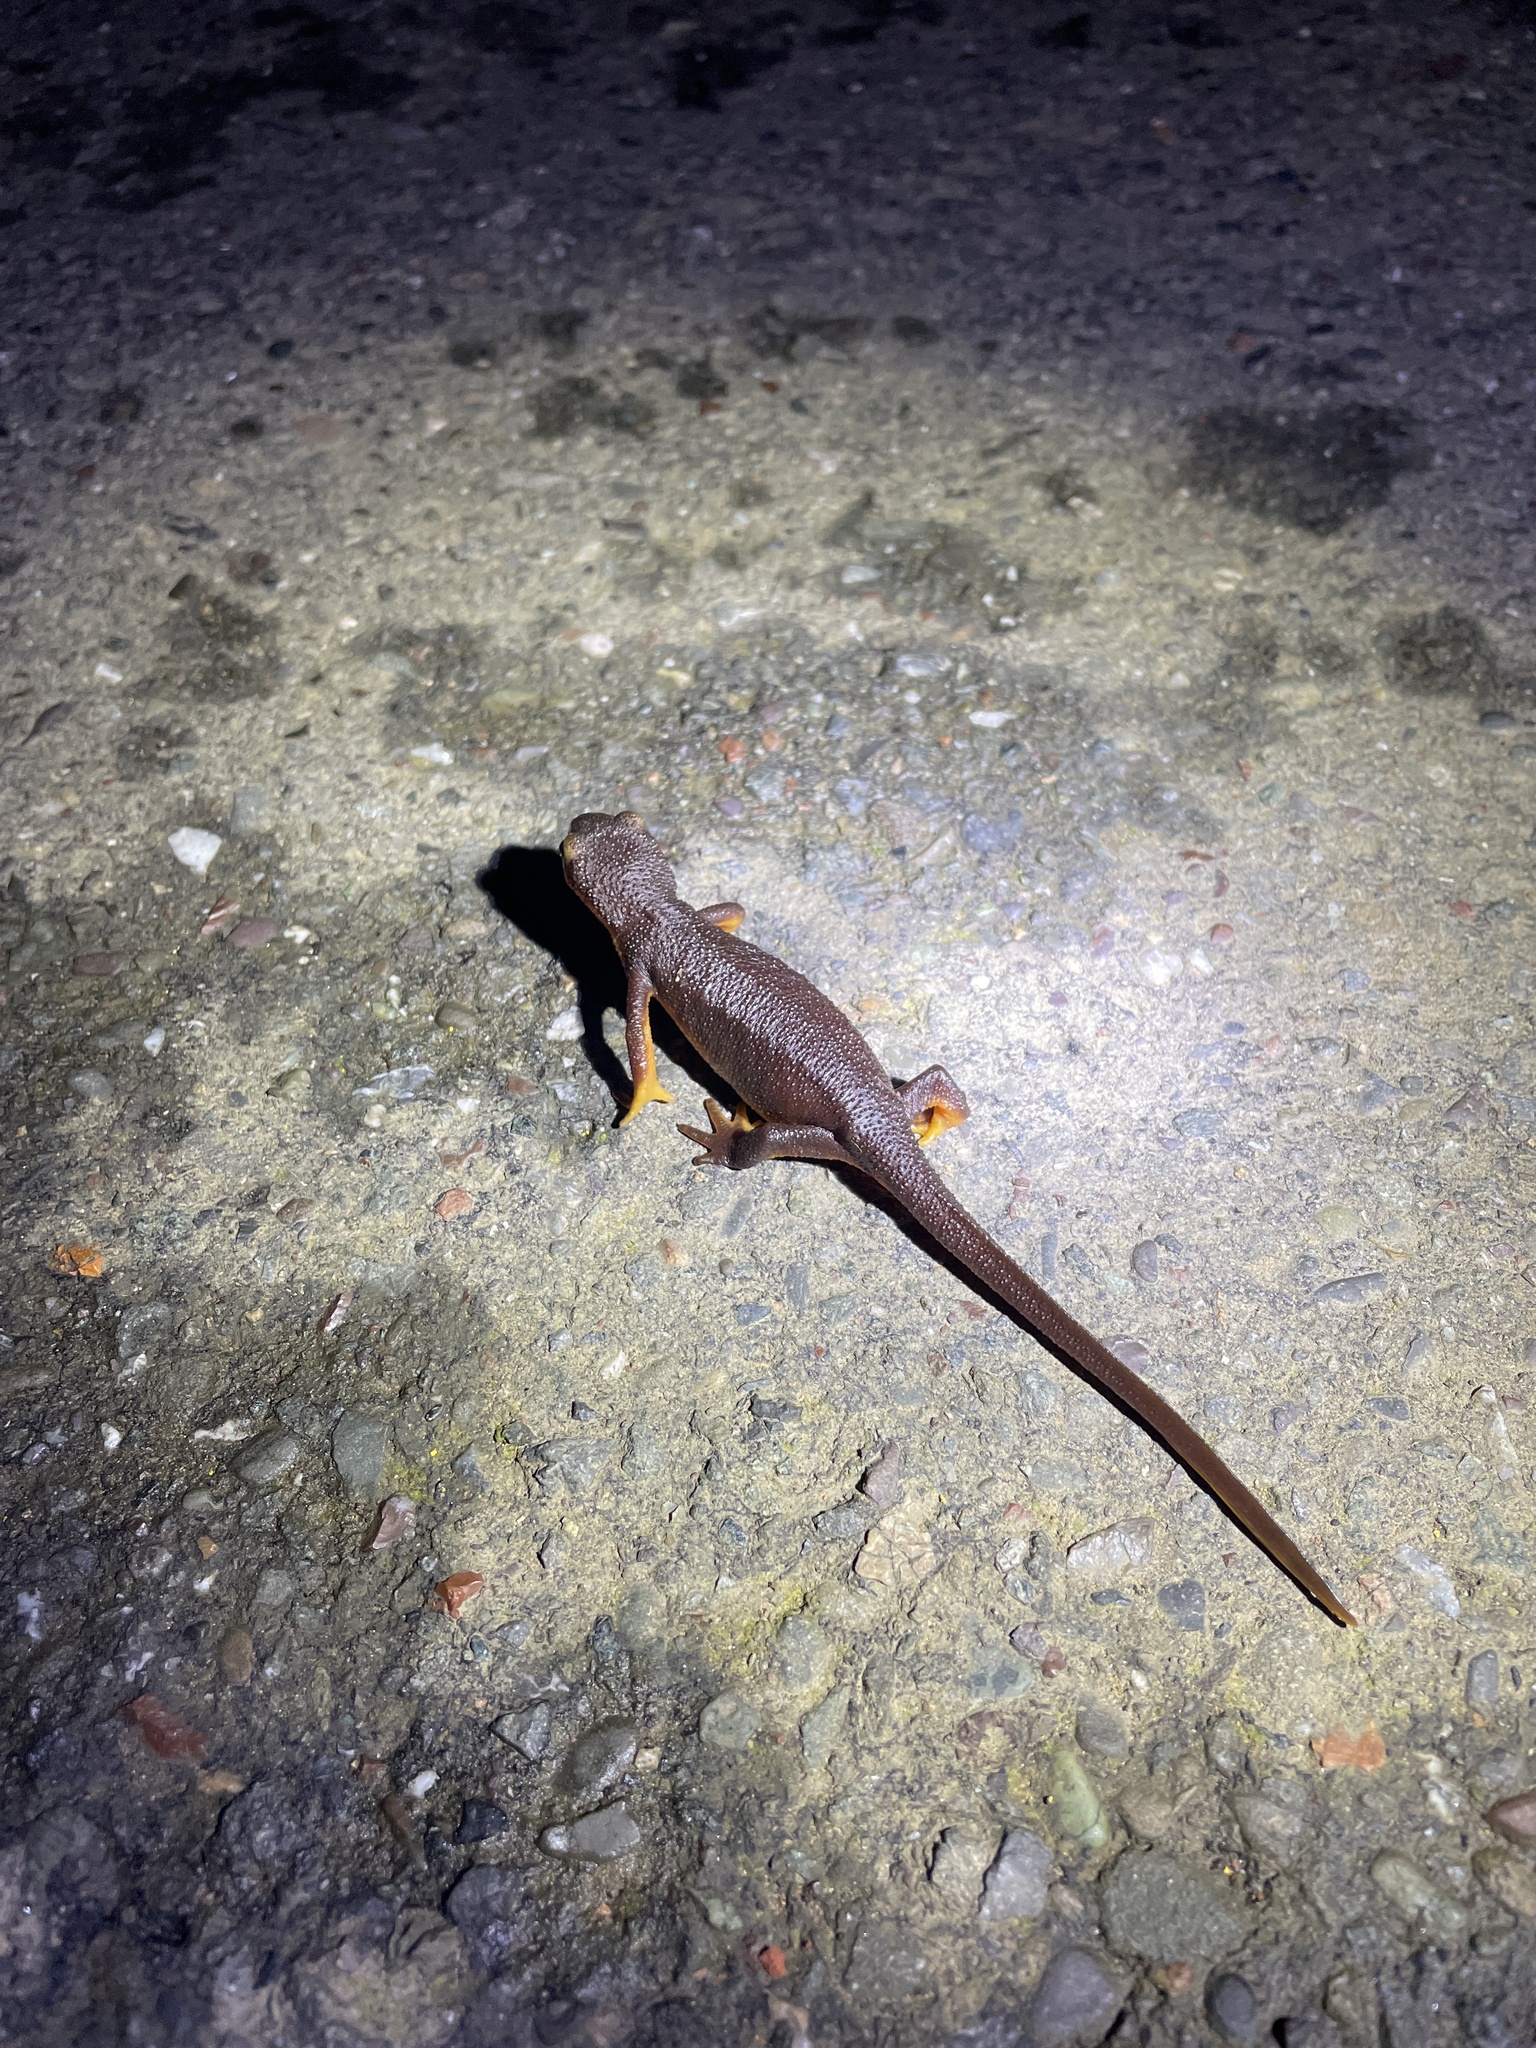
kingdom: Animalia
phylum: Chordata
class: Amphibia
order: Caudata
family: Salamandridae
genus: Taricha
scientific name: Taricha torosa
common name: California newt
